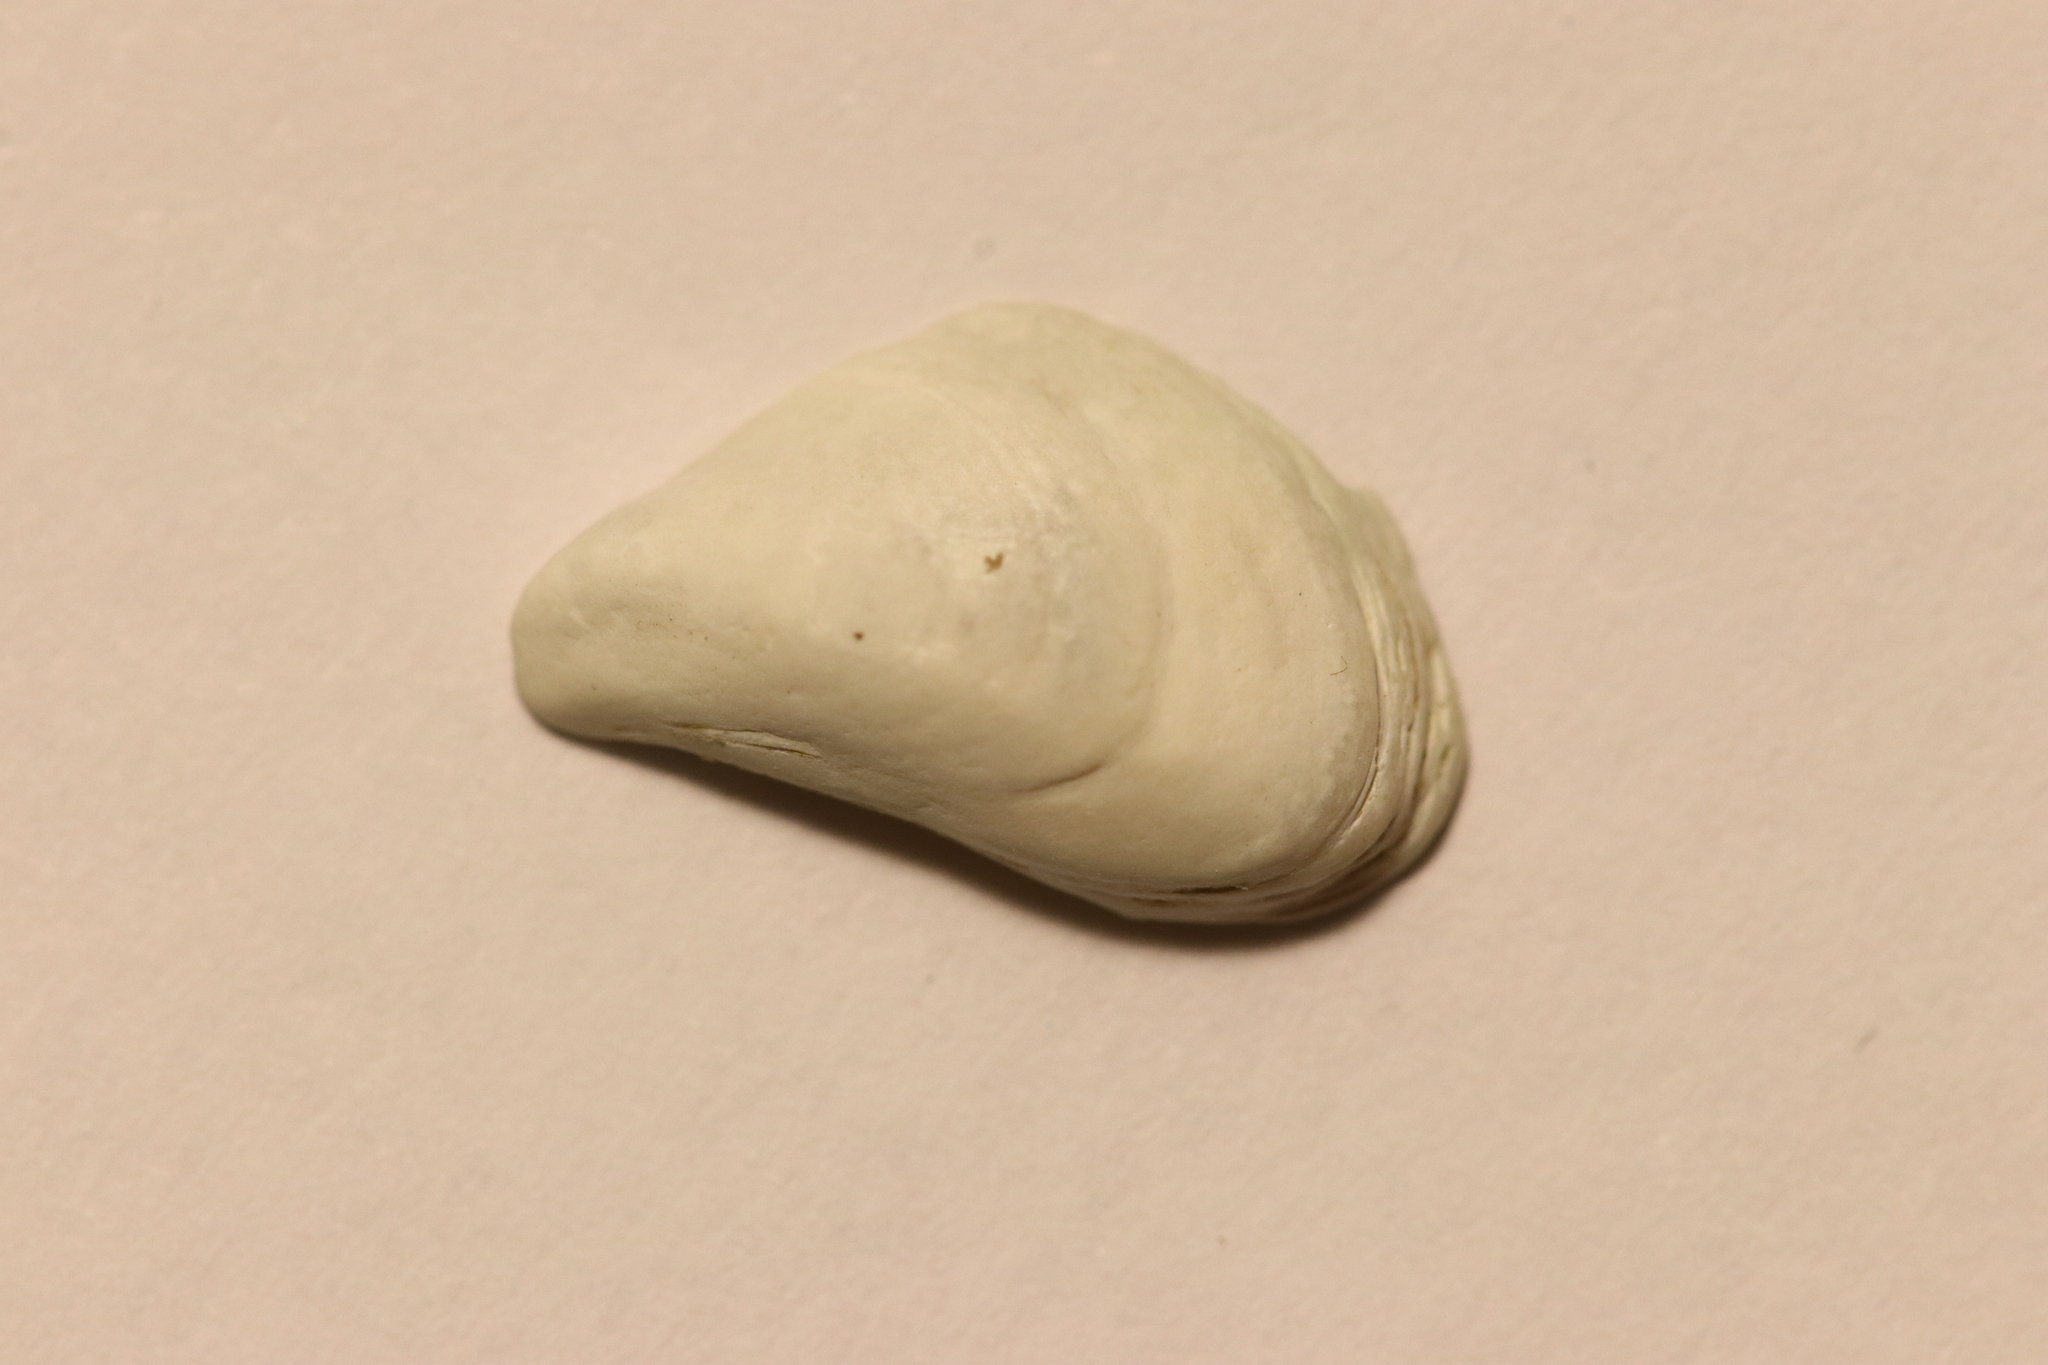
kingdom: Animalia
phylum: Mollusca
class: Bivalvia
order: Myida
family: Dreissenidae
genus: Dreissena
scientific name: Dreissena bugensis
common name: Quagga mussel
